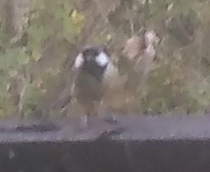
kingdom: Animalia
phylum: Chordata
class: Aves
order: Passeriformes
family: Paridae
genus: Parus
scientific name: Parus major
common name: Great tit
